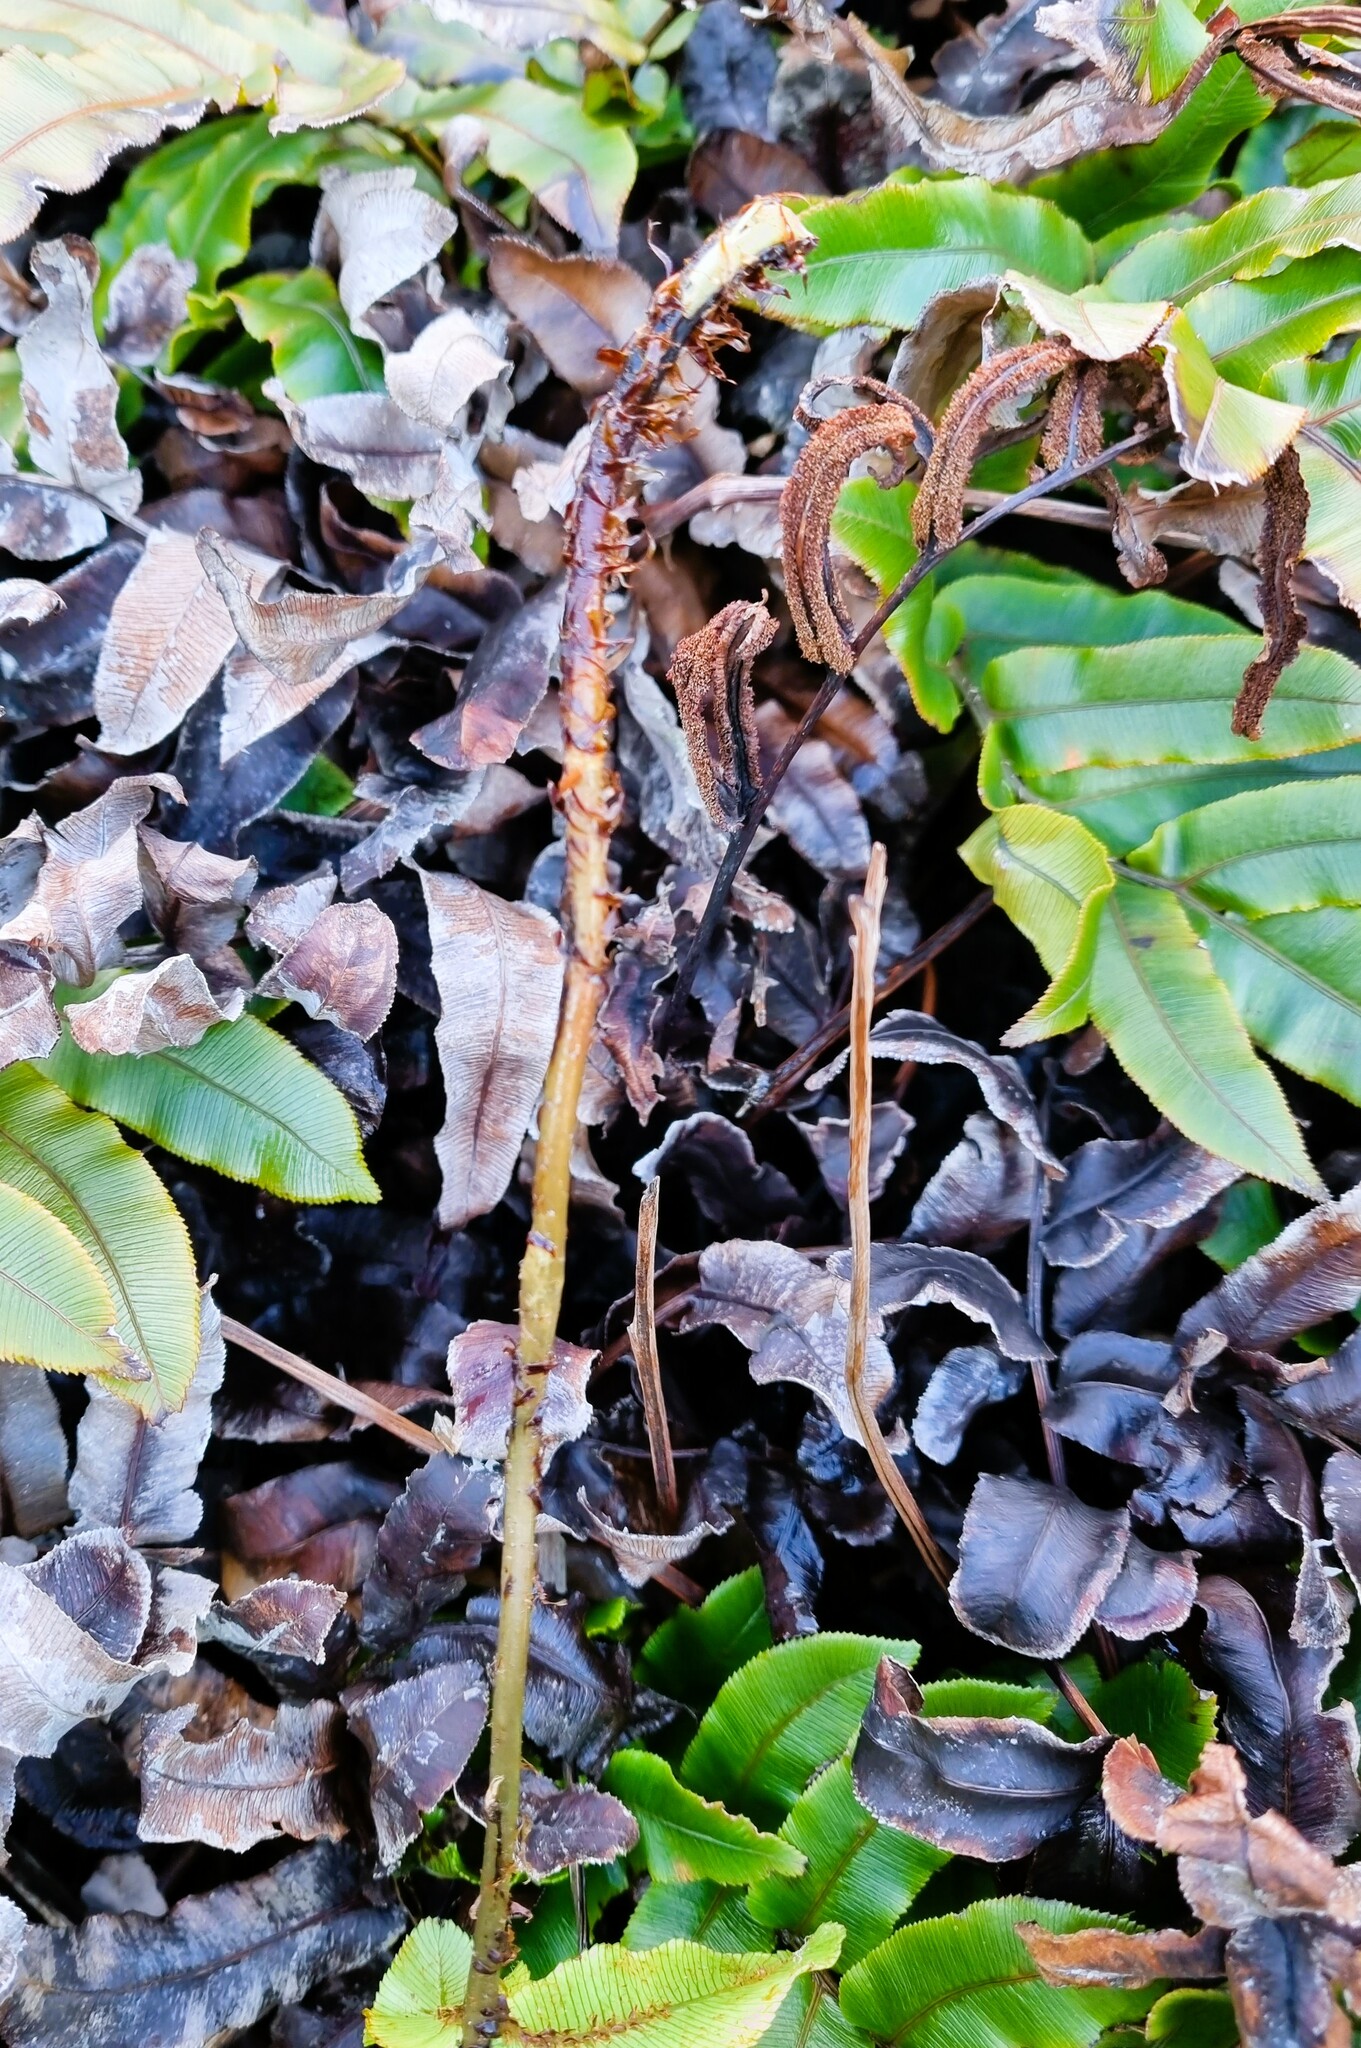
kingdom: Plantae
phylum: Tracheophyta
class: Polypodiopsida
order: Polypodiales
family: Blechnaceae
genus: Parablechnum
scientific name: Parablechnum procerum
